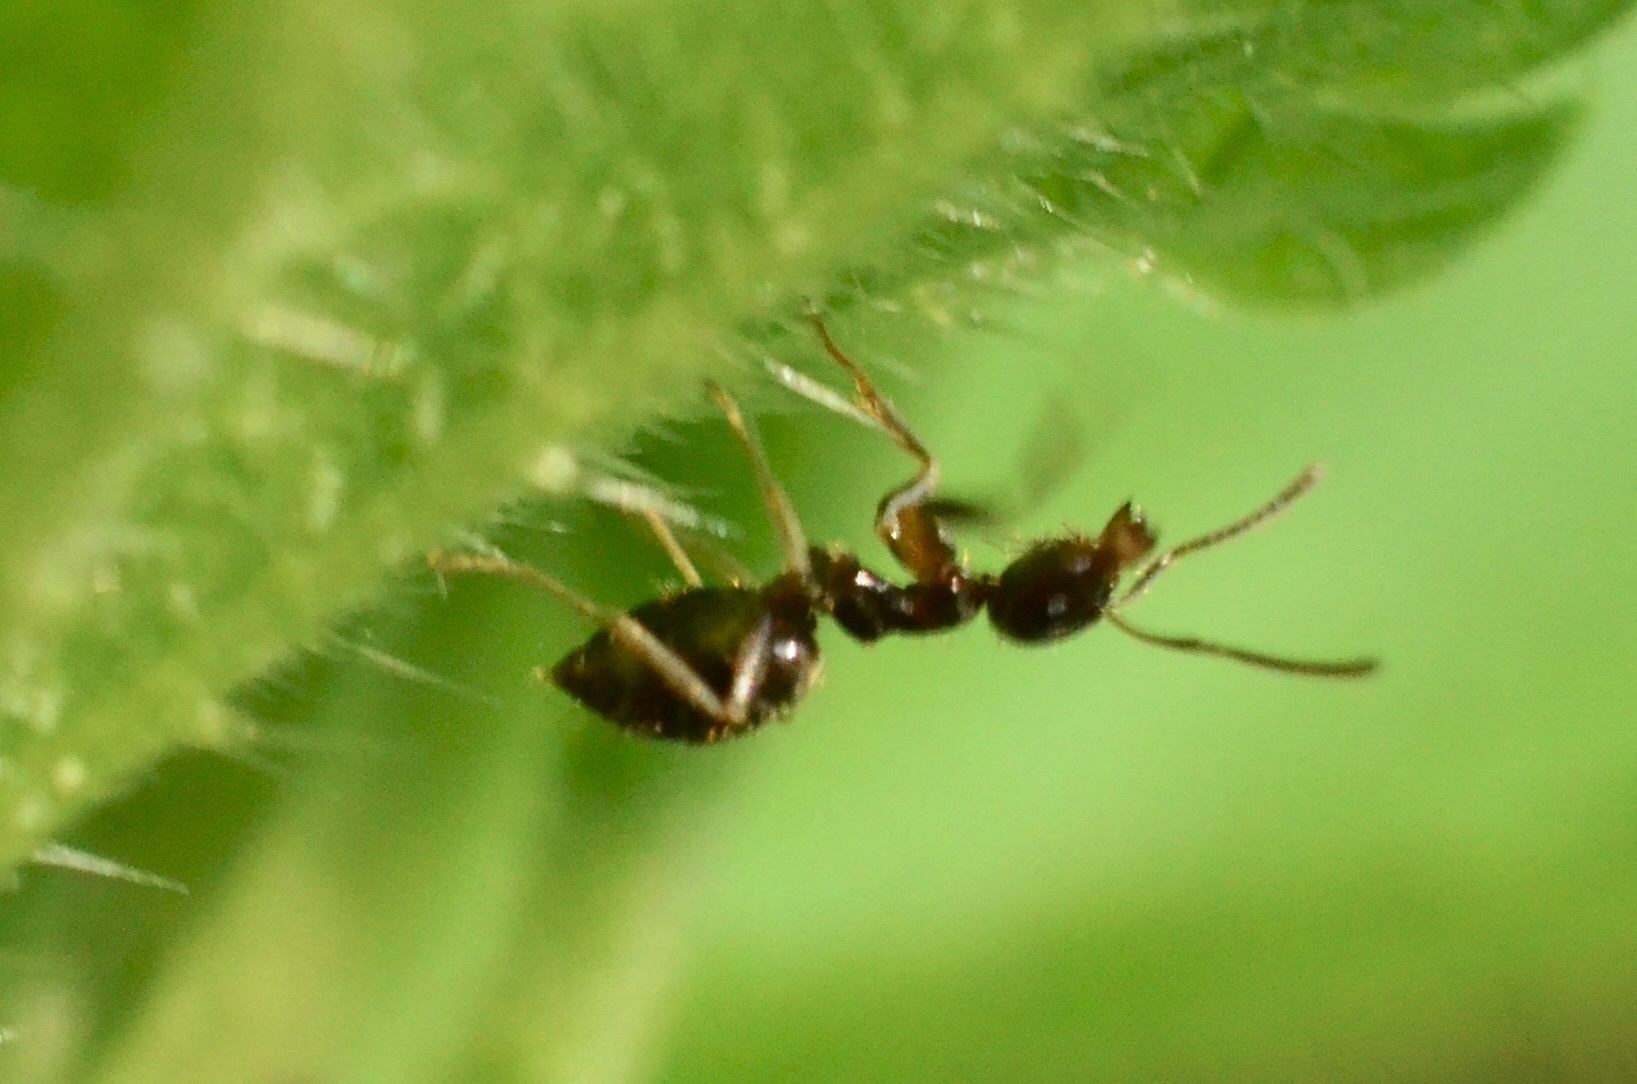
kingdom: Animalia
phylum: Arthropoda
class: Insecta
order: Hymenoptera
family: Formicidae
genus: Lasius
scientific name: Lasius
